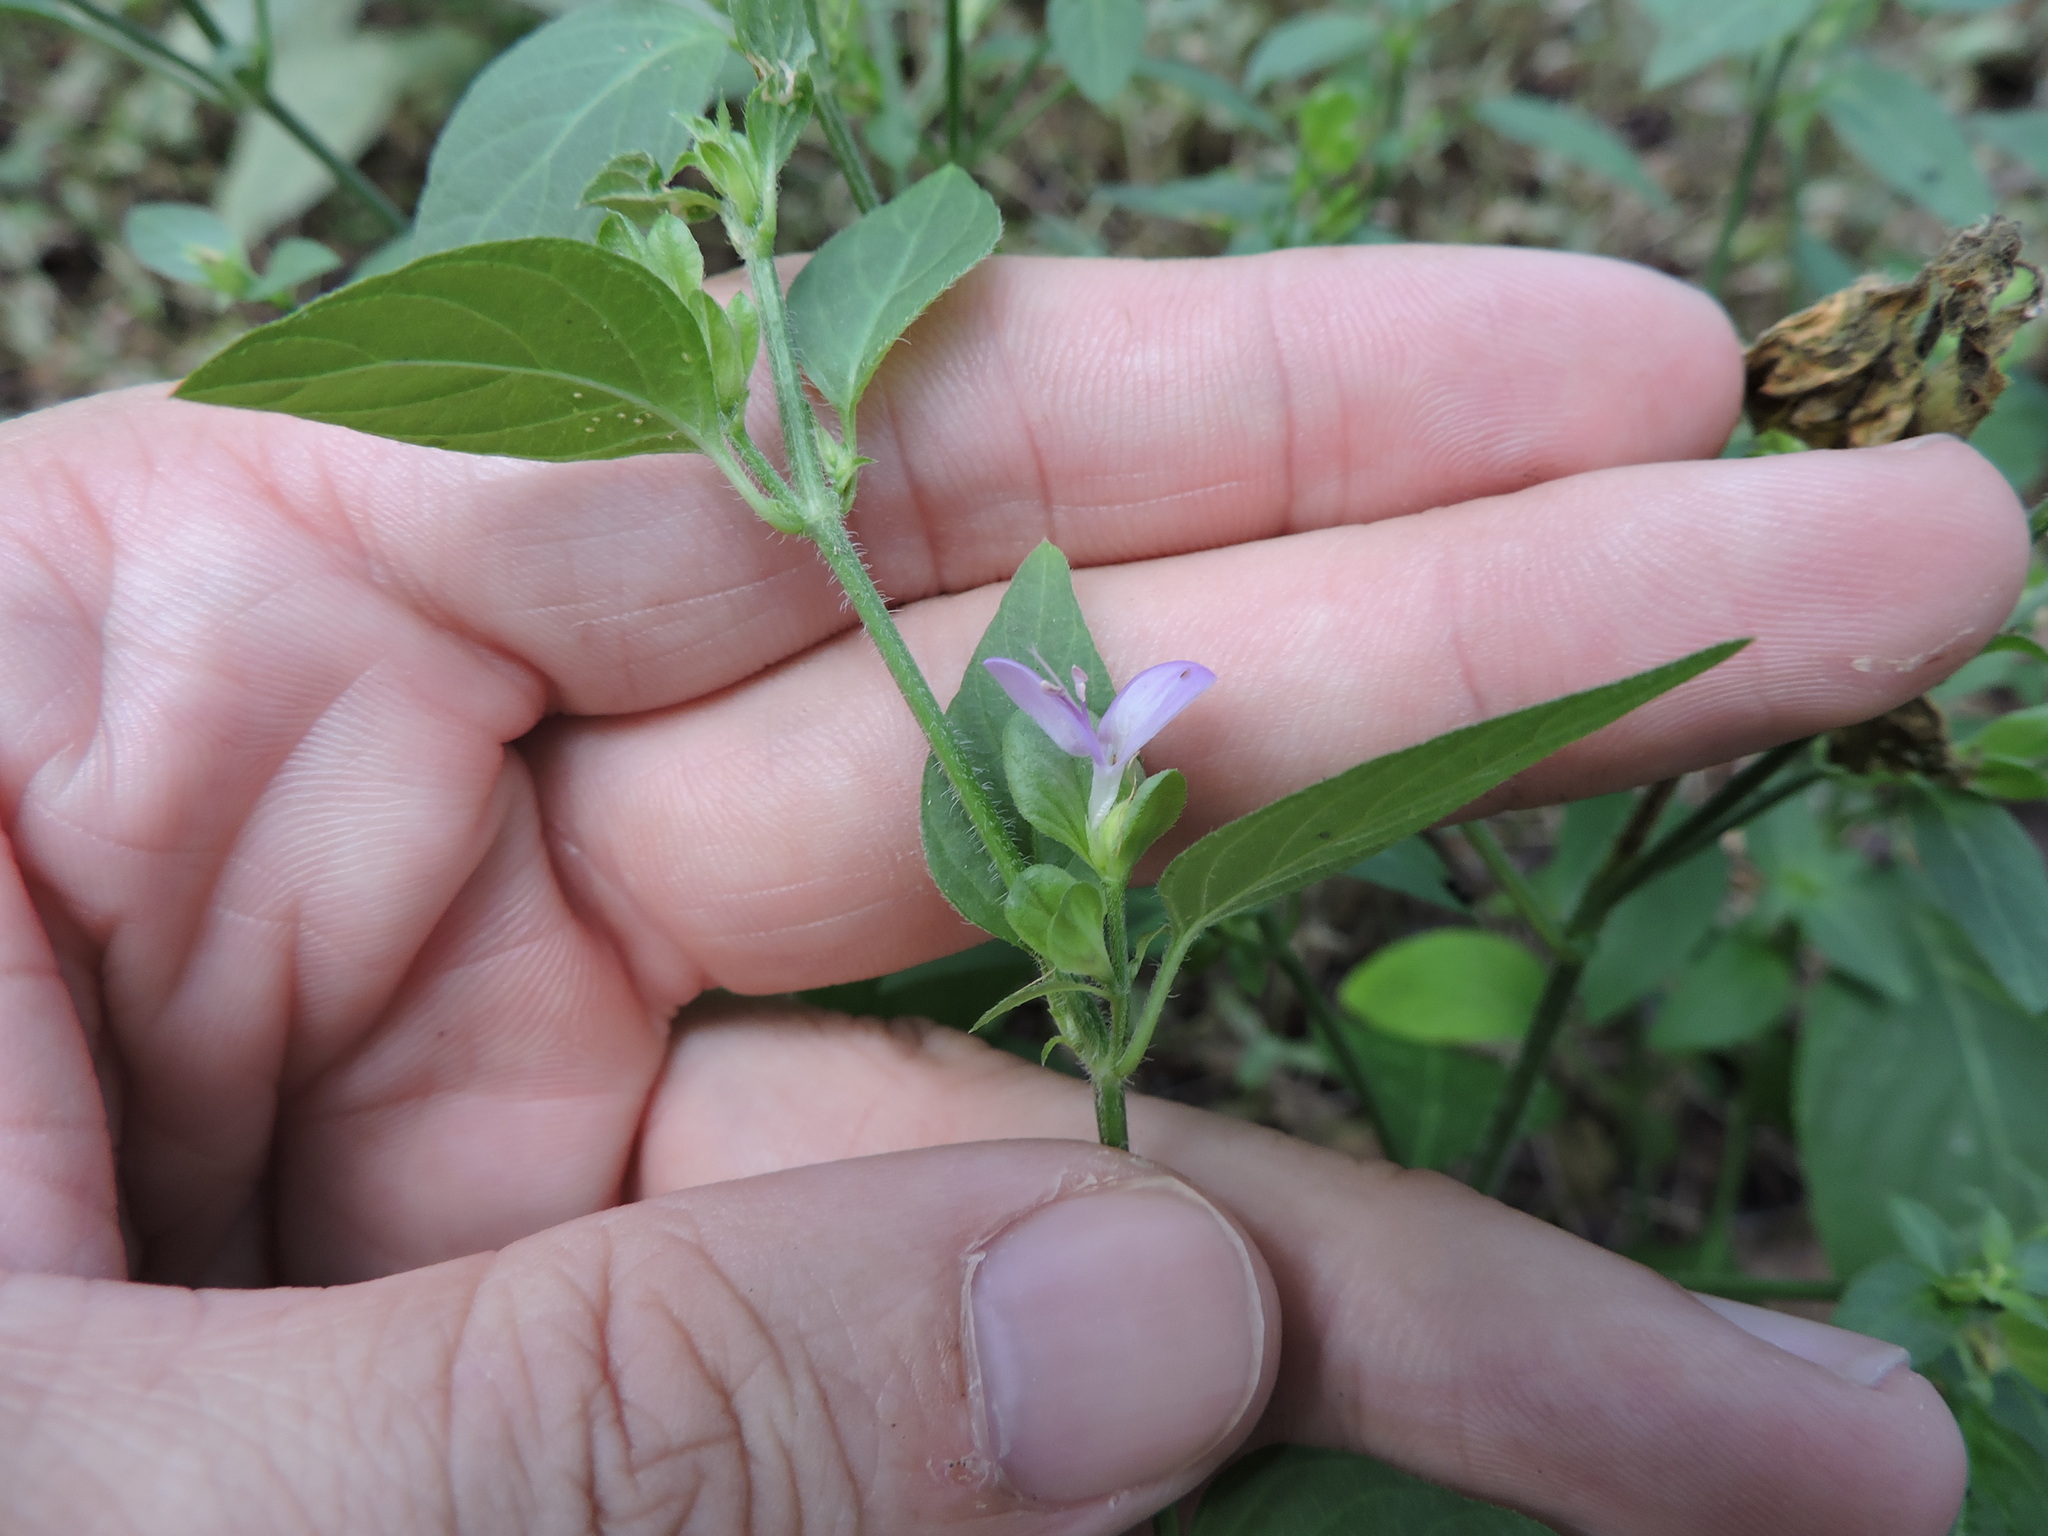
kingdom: Plantae
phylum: Tracheophyta
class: Magnoliopsida
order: Lamiales
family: Acanthaceae
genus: Dicliptera
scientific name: Dicliptera brachiata
